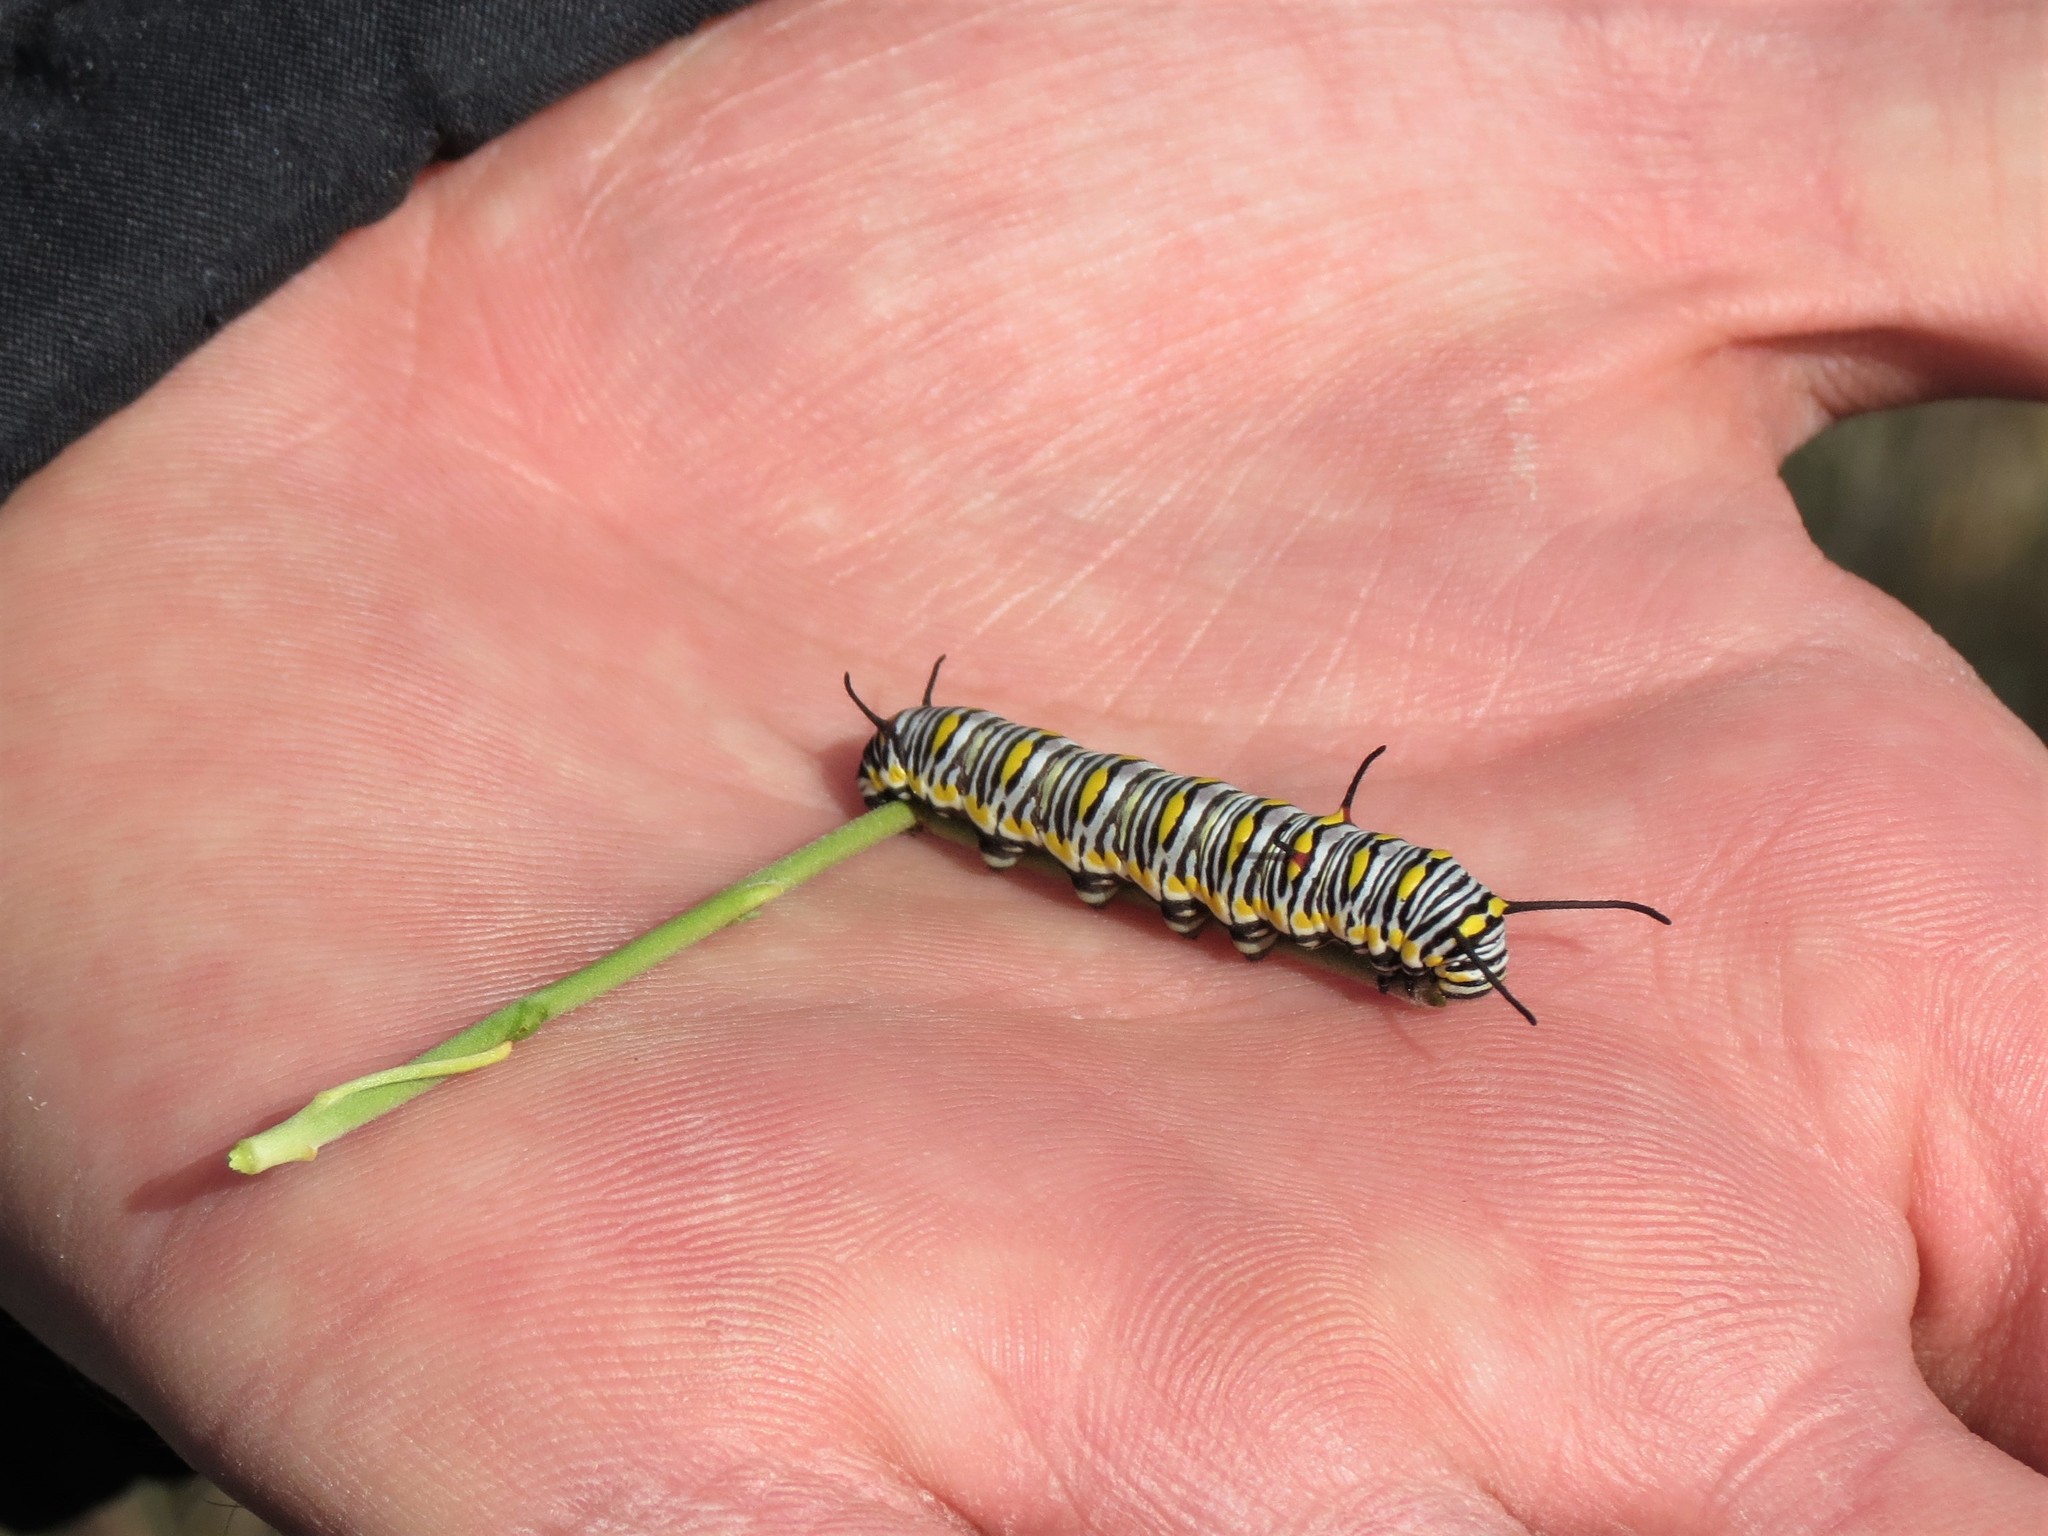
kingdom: Animalia
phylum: Arthropoda
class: Insecta
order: Lepidoptera
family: Nymphalidae
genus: Danaus
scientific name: Danaus chrysippus
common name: Plain tiger
